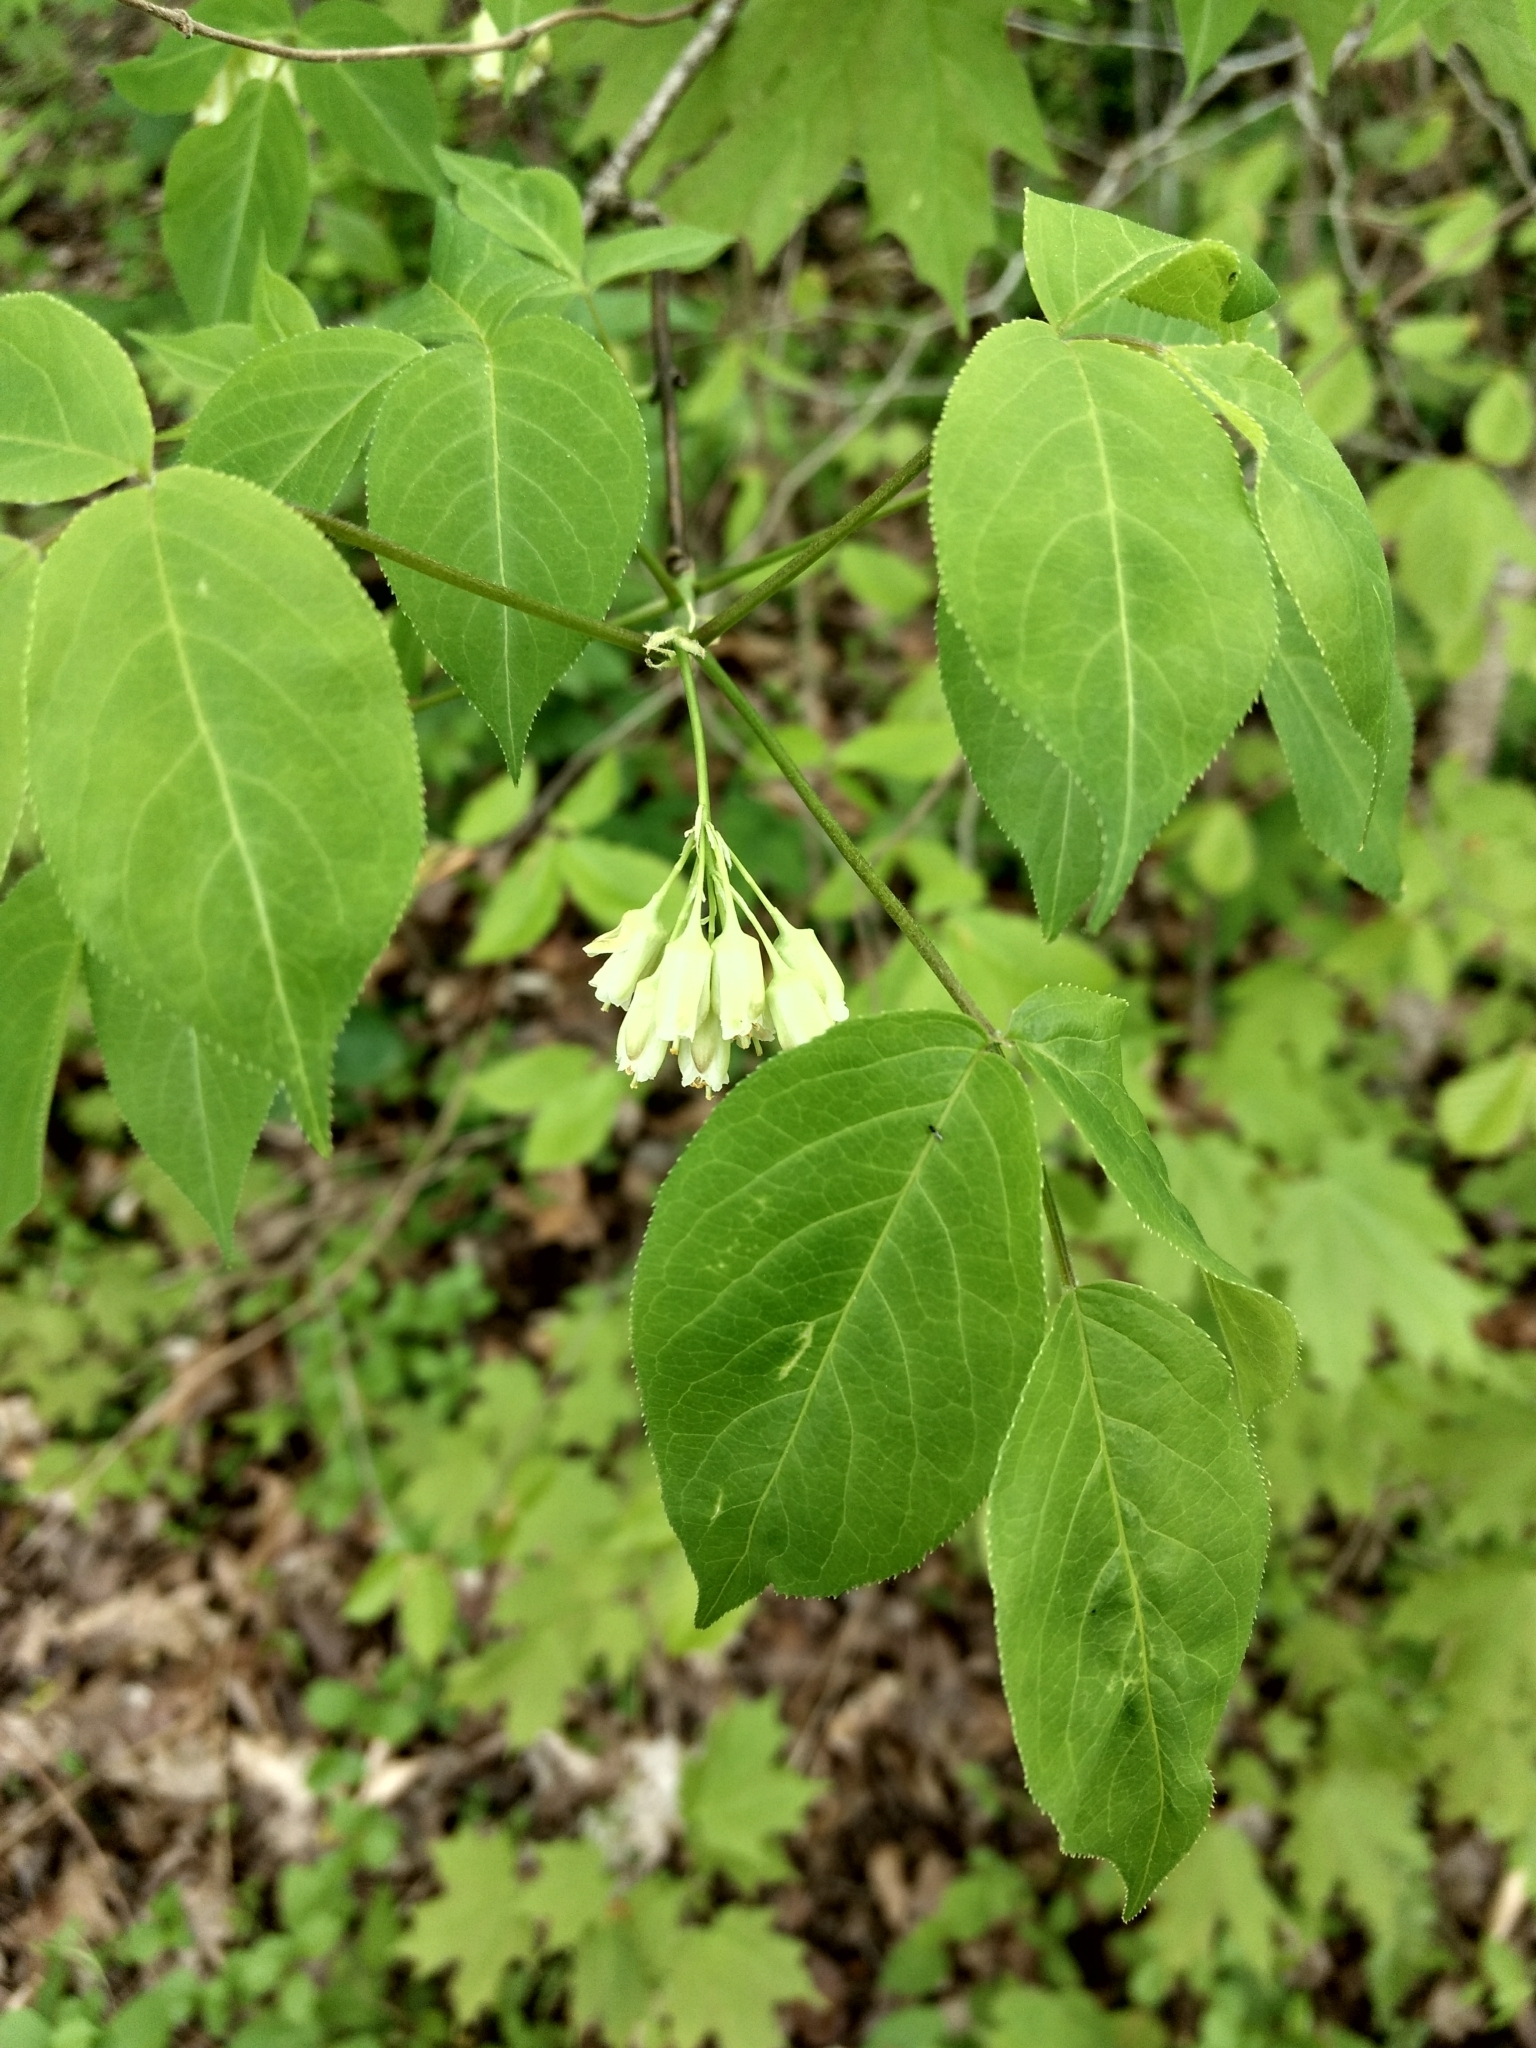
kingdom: Plantae
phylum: Tracheophyta
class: Magnoliopsida
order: Crossosomatales
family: Staphyleaceae
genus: Staphylea
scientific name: Staphylea trifolia
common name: American bladdernut
